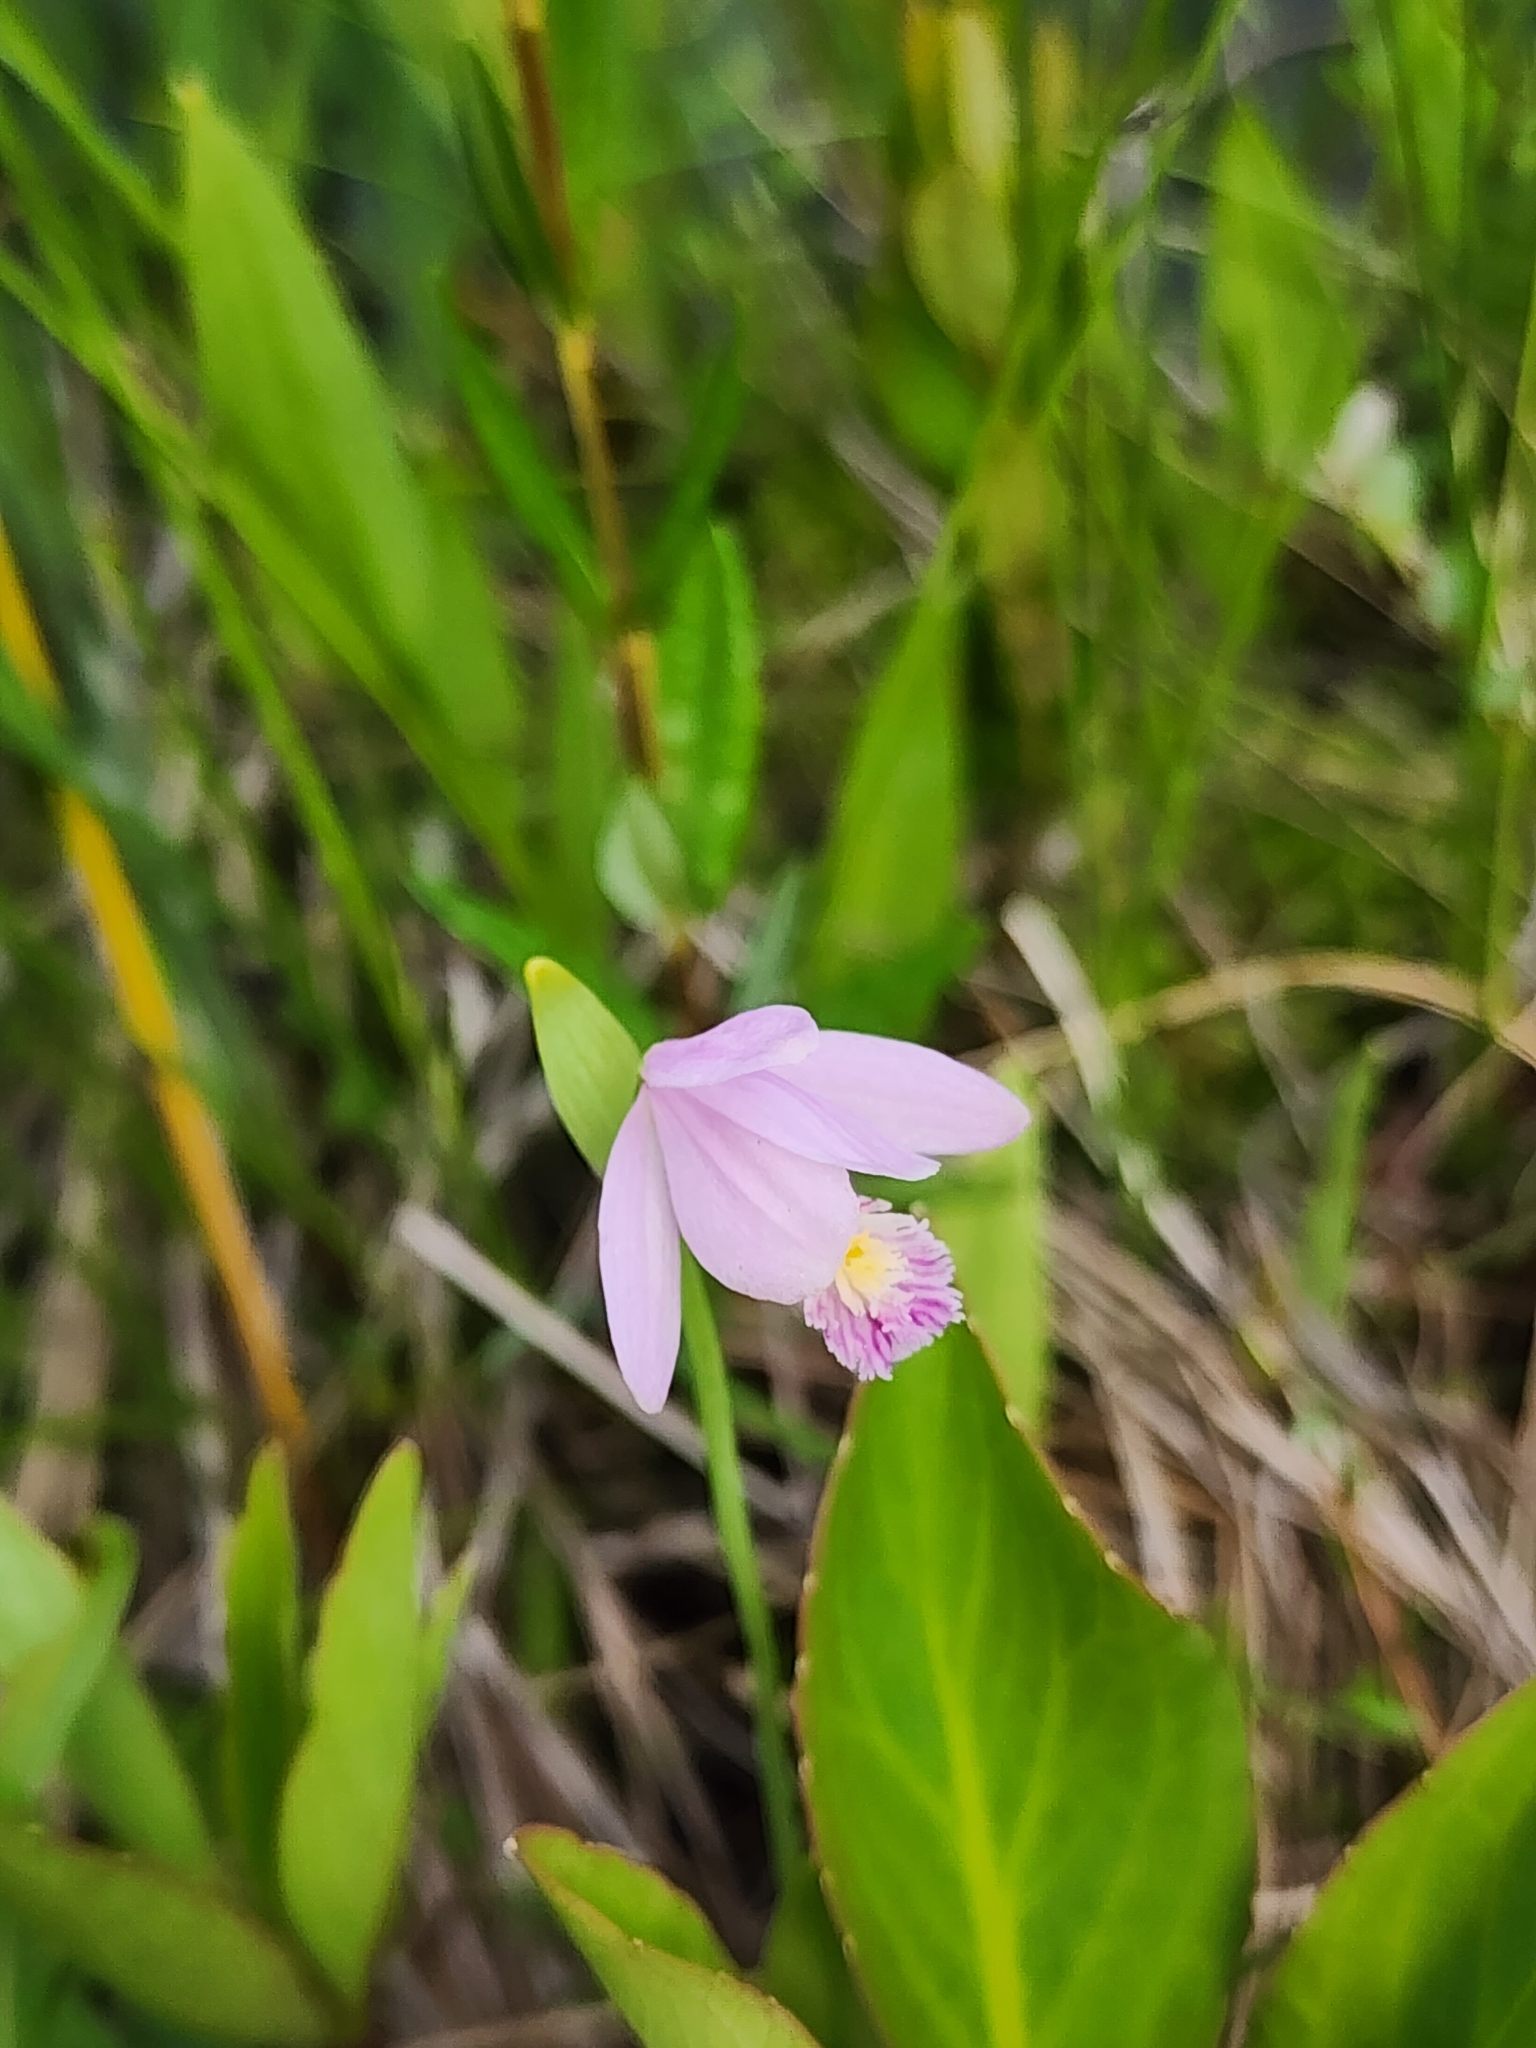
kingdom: Plantae
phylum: Tracheophyta
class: Liliopsida
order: Asparagales
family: Orchidaceae
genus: Pogonia
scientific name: Pogonia ophioglossoides
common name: Rose pogonia
